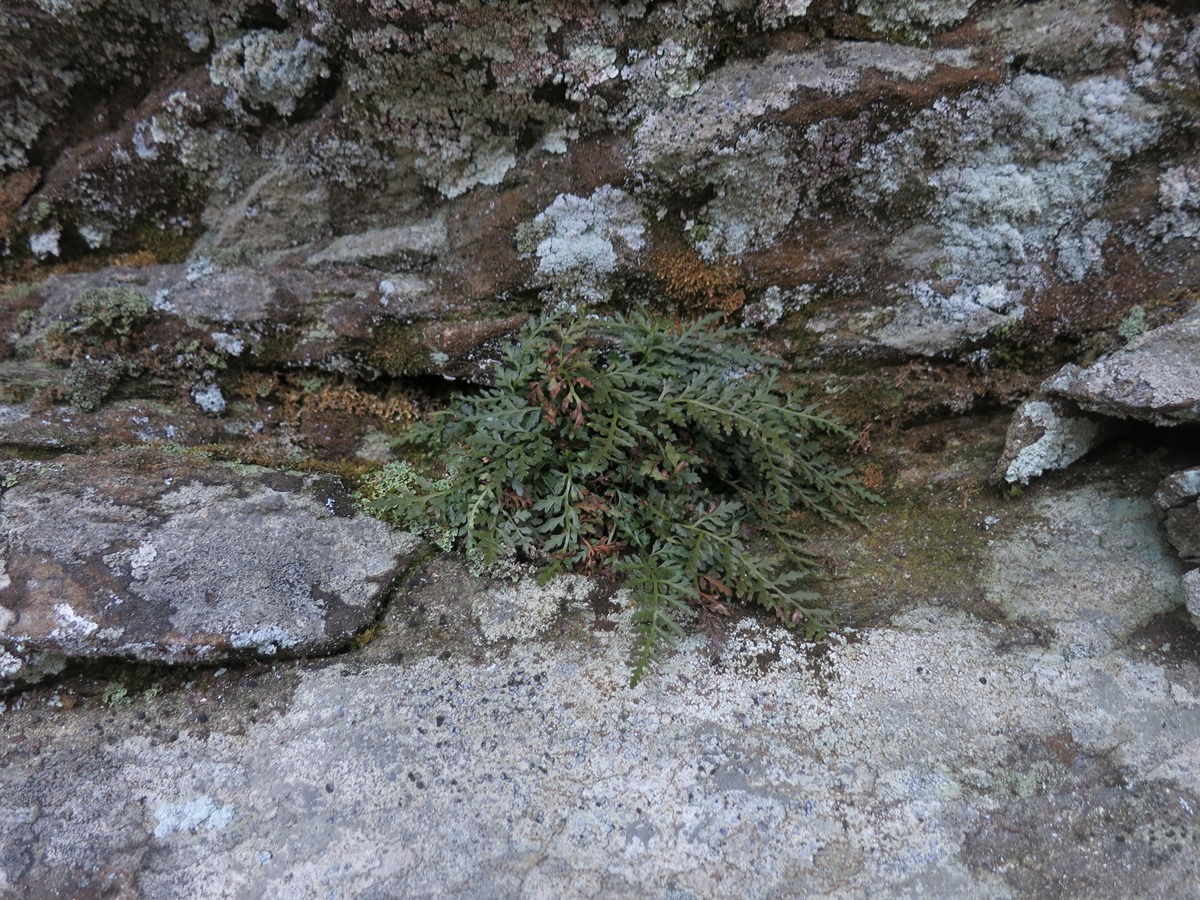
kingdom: Plantae
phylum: Tracheophyta
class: Polypodiopsida
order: Polypodiales
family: Aspleniaceae
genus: Asplenium
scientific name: Asplenium montanum
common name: Mountain spleenwort
